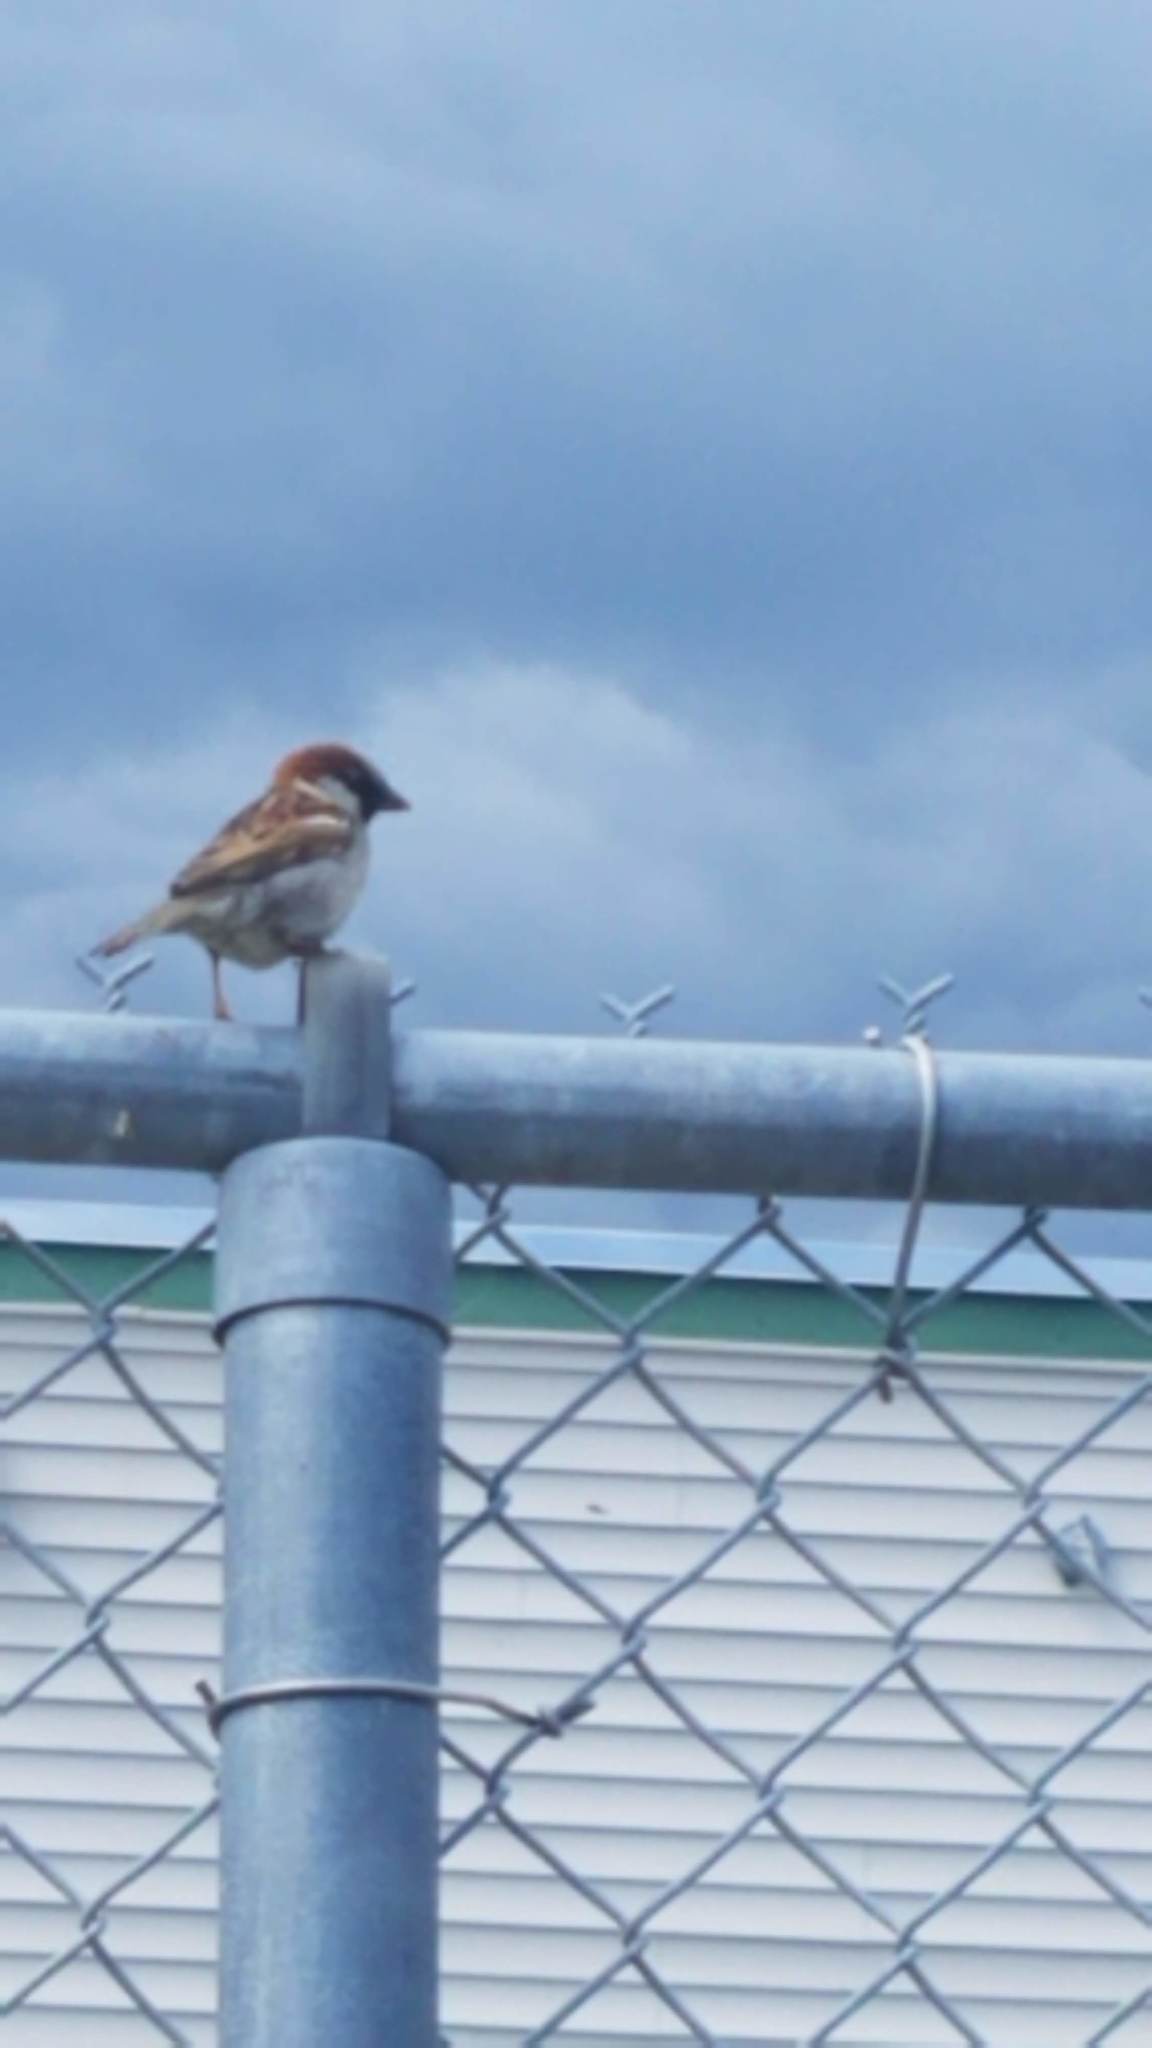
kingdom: Animalia
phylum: Chordata
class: Aves
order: Passeriformes
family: Passeridae
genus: Passer
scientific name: Passer domesticus
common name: House sparrow
